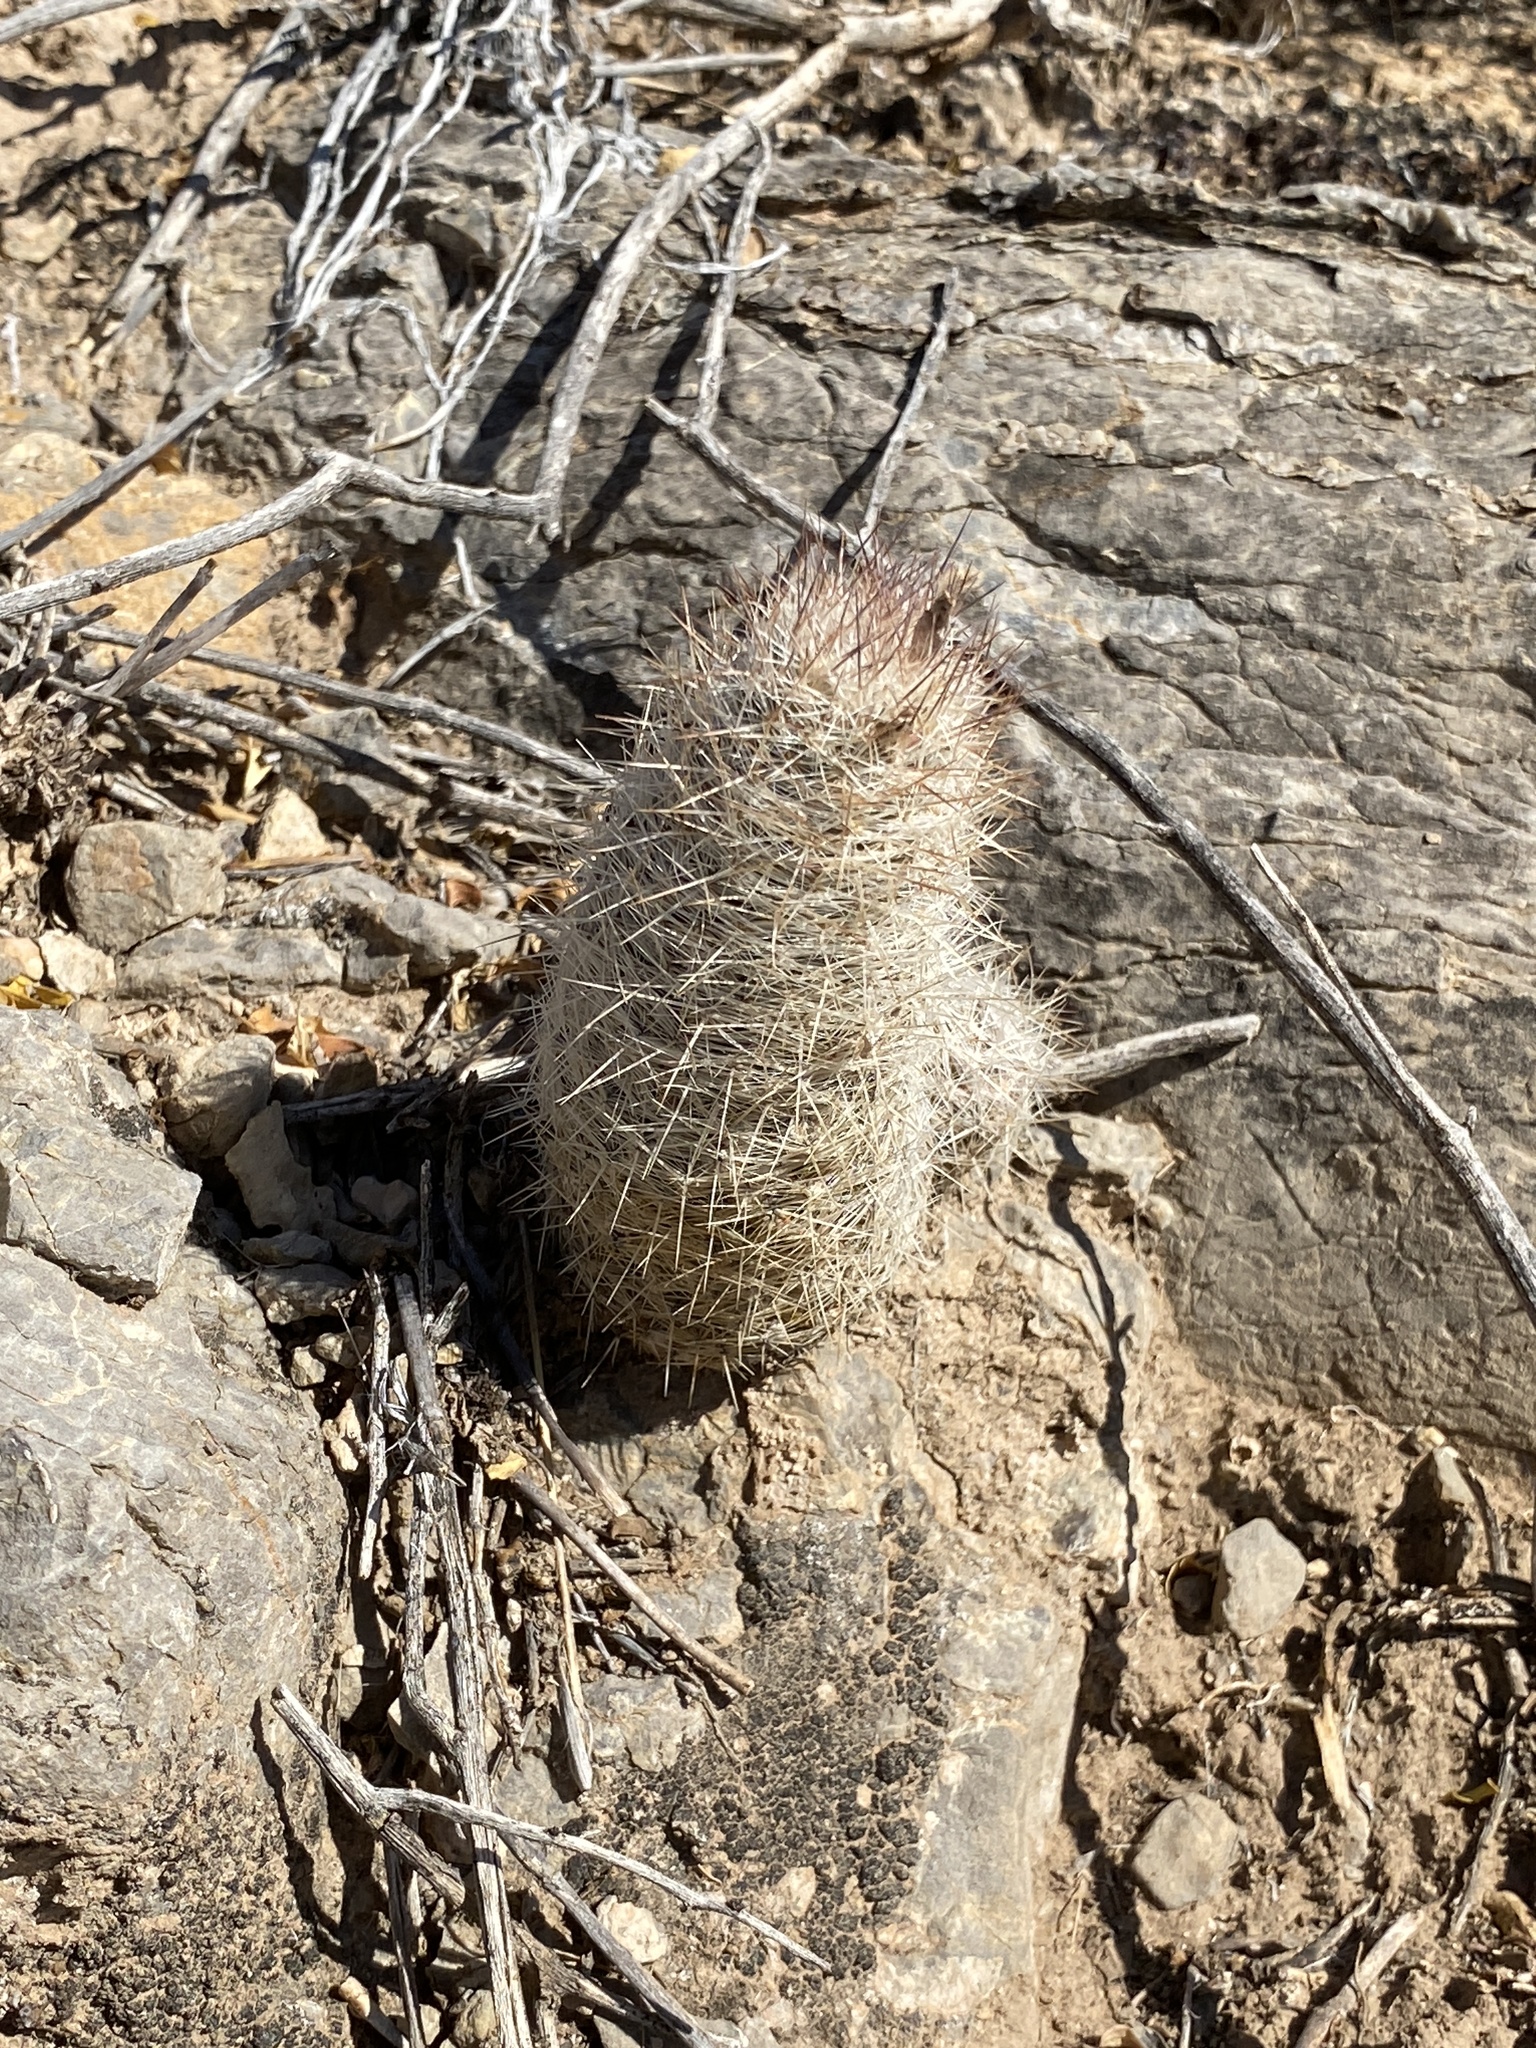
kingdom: Plantae
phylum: Tracheophyta
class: Magnoliopsida
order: Caryophyllales
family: Cactaceae
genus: Pelecyphora
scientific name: Pelecyphora tuberculosa
